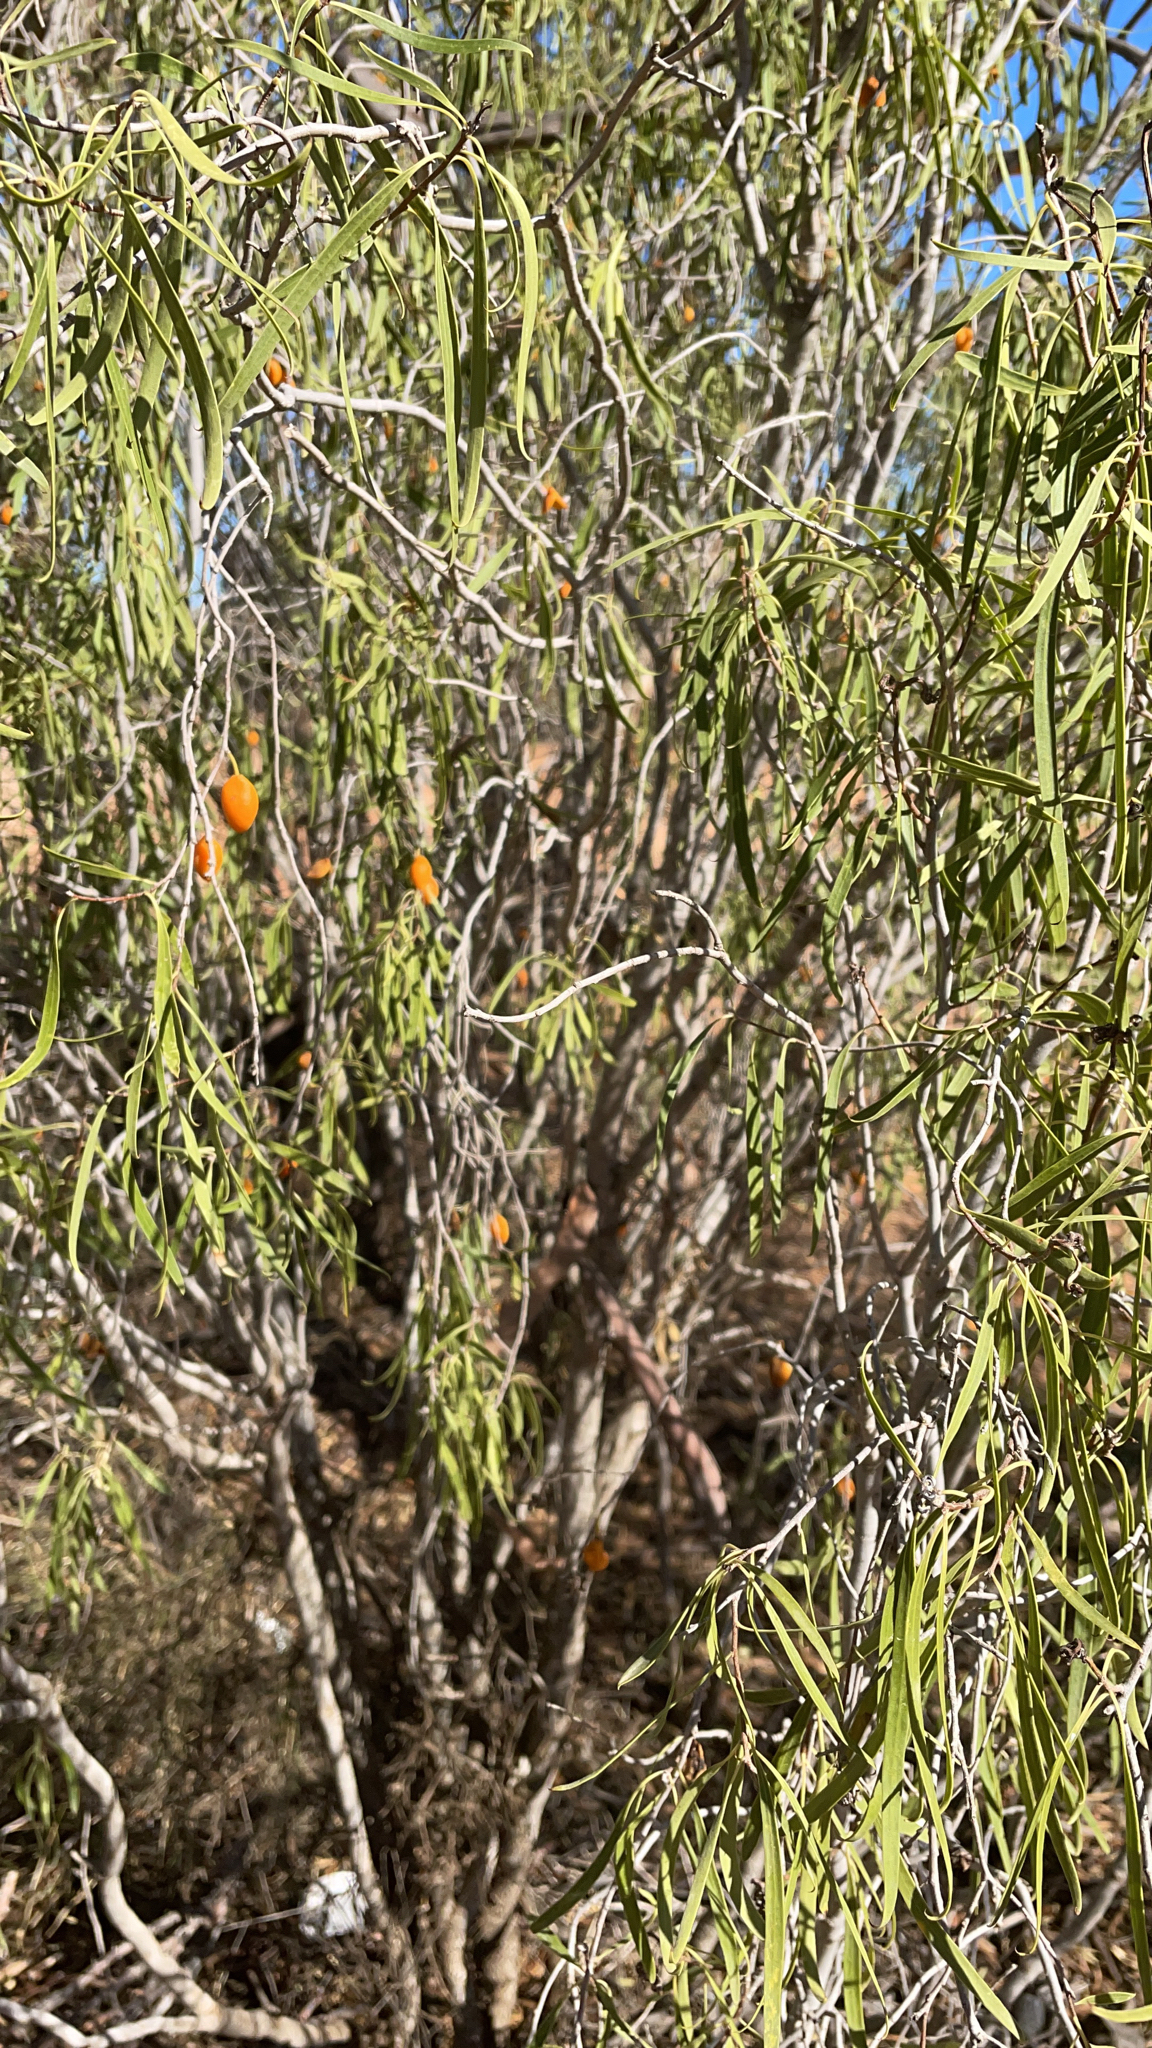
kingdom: Plantae
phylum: Tracheophyta
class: Magnoliopsida
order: Apiales
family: Pittosporaceae
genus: Pittosporum
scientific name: Pittosporum angustifolium
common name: Weeping pittosporum
